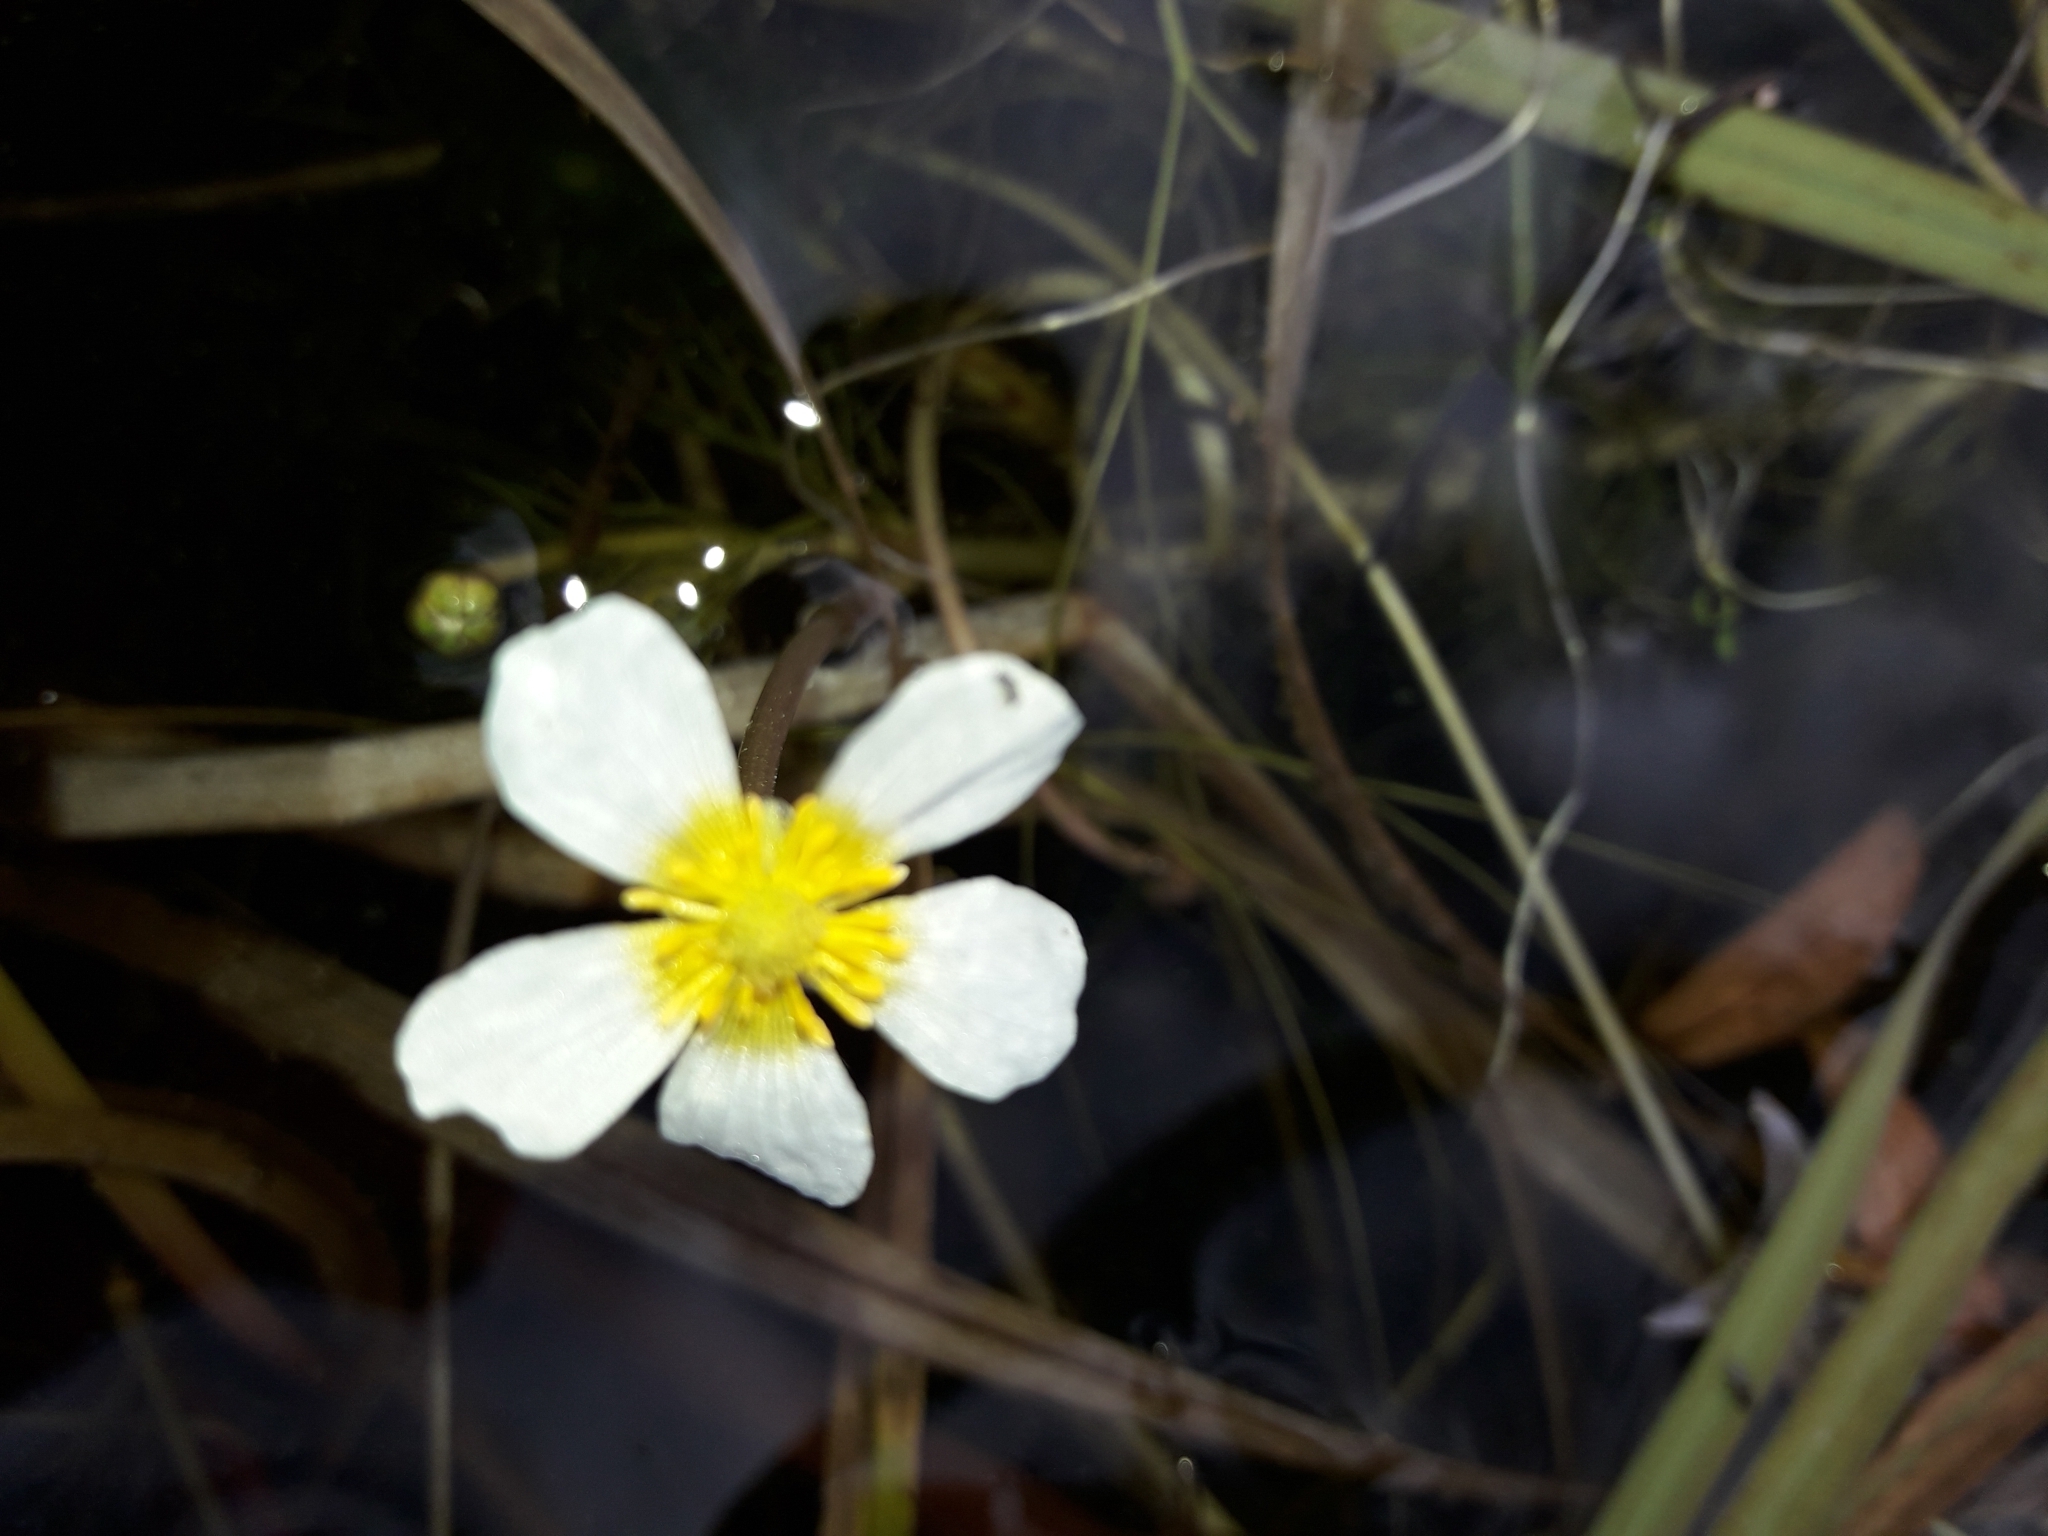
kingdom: Plantae
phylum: Tracheophyta
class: Magnoliopsida
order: Ranunculales
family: Ranunculaceae
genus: Ranunculus
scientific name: Ranunculus trichophyllus
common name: Thread-leaved water-crowfoot
